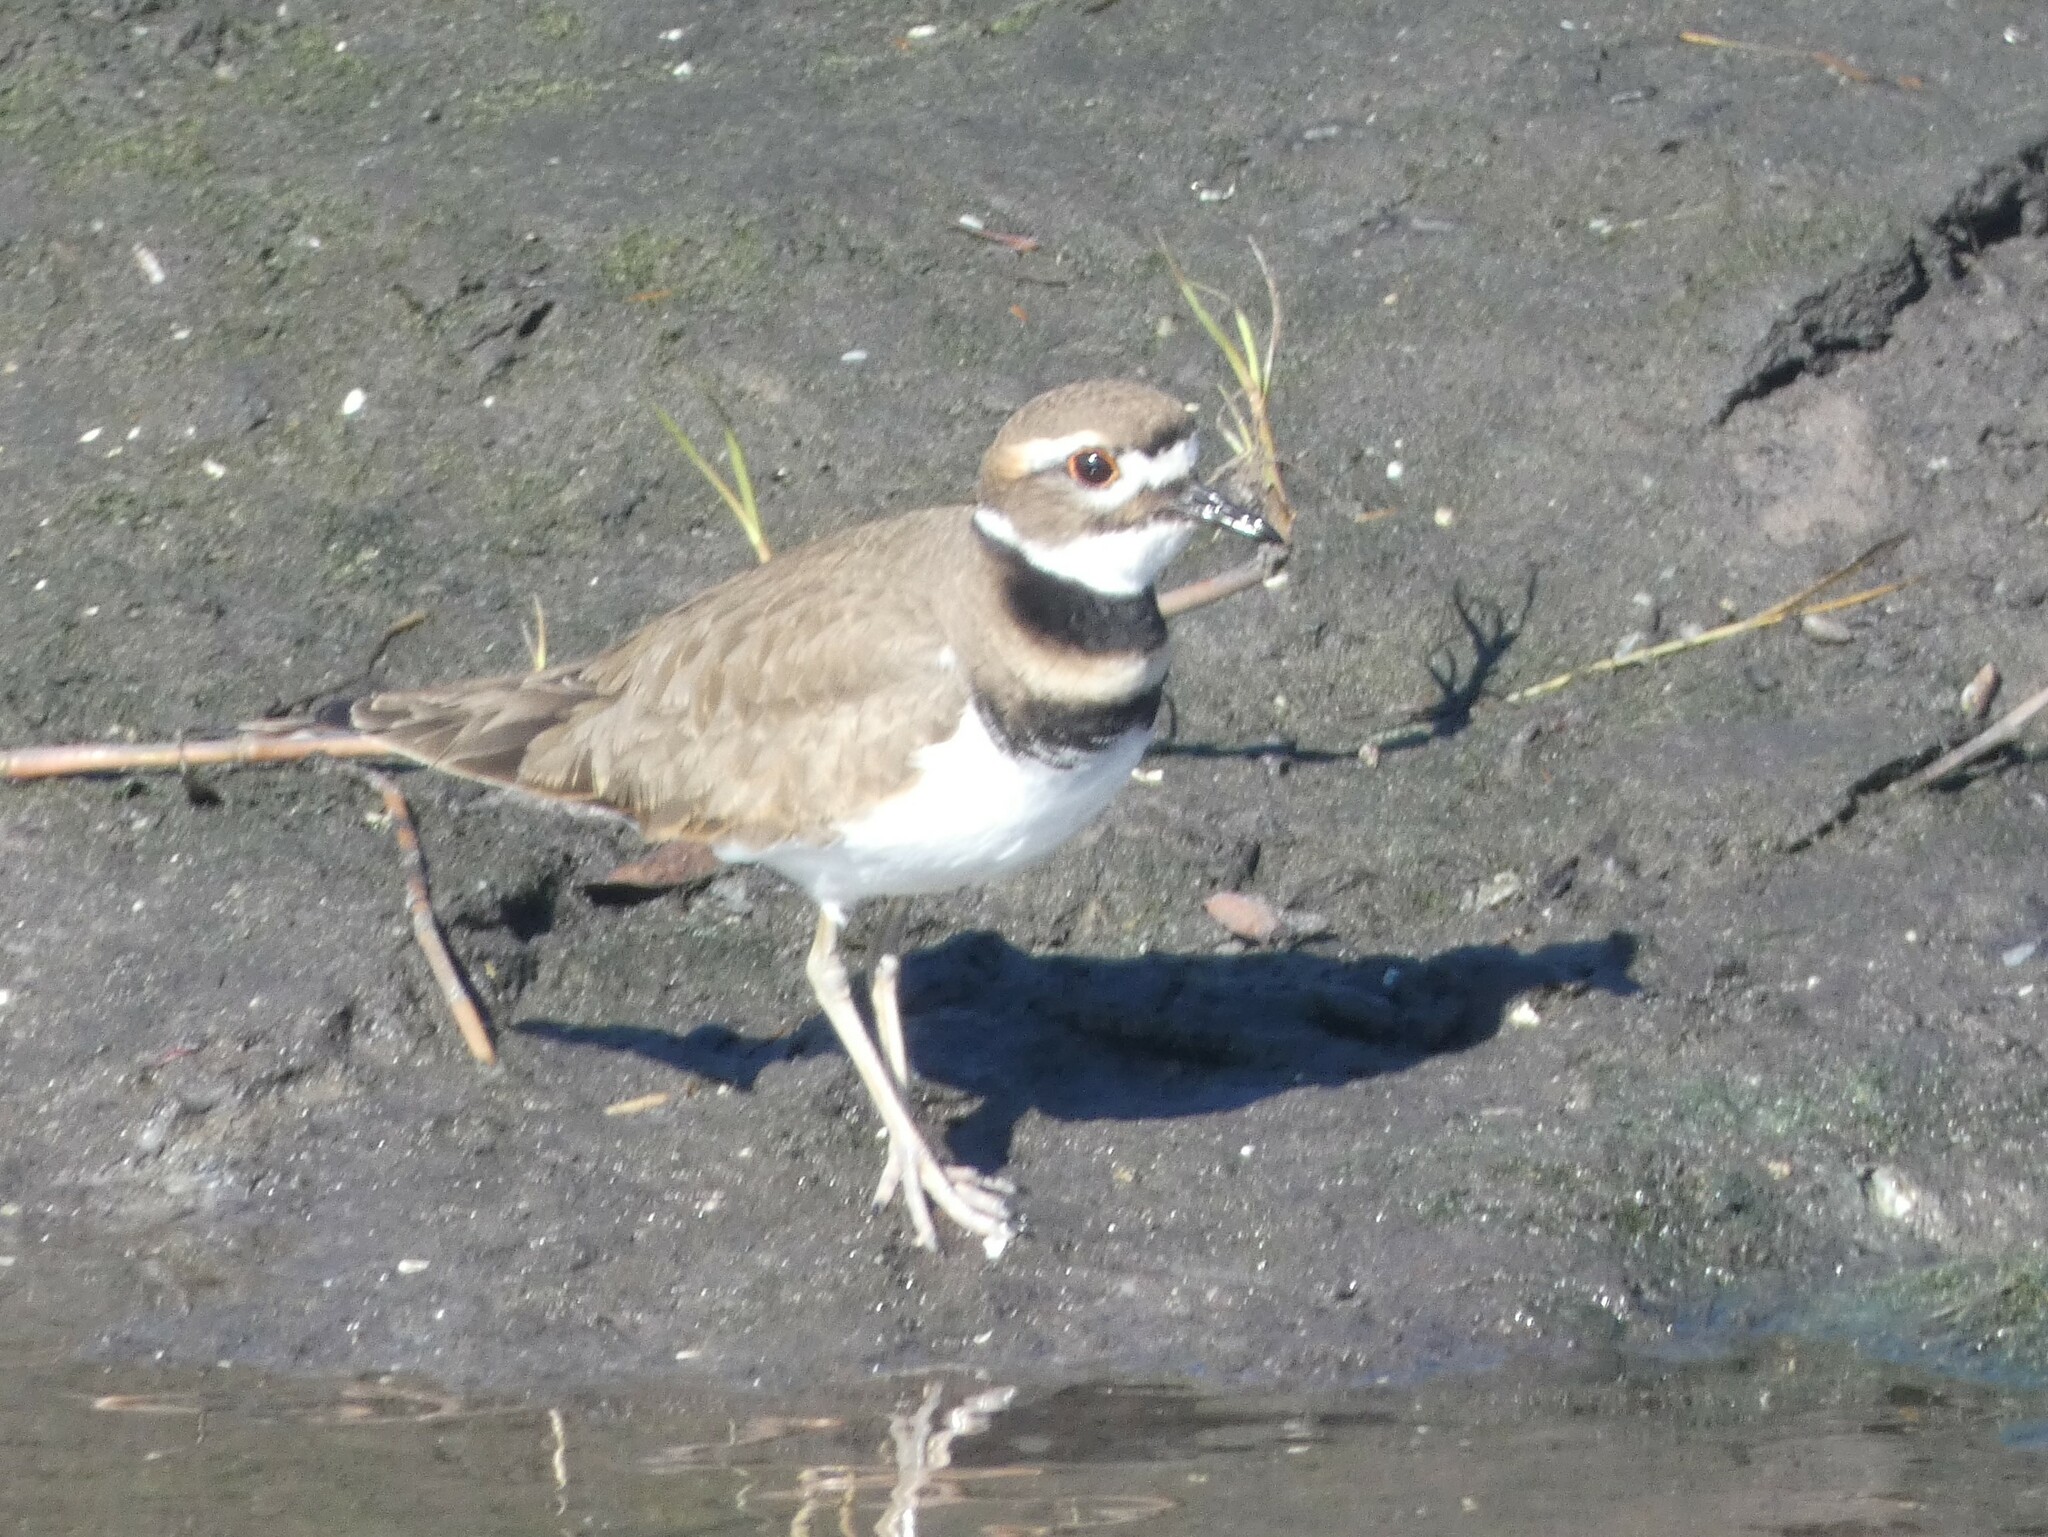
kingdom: Animalia
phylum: Chordata
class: Aves
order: Charadriiformes
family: Charadriidae
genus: Charadrius
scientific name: Charadrius vociferus
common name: Killdeer
